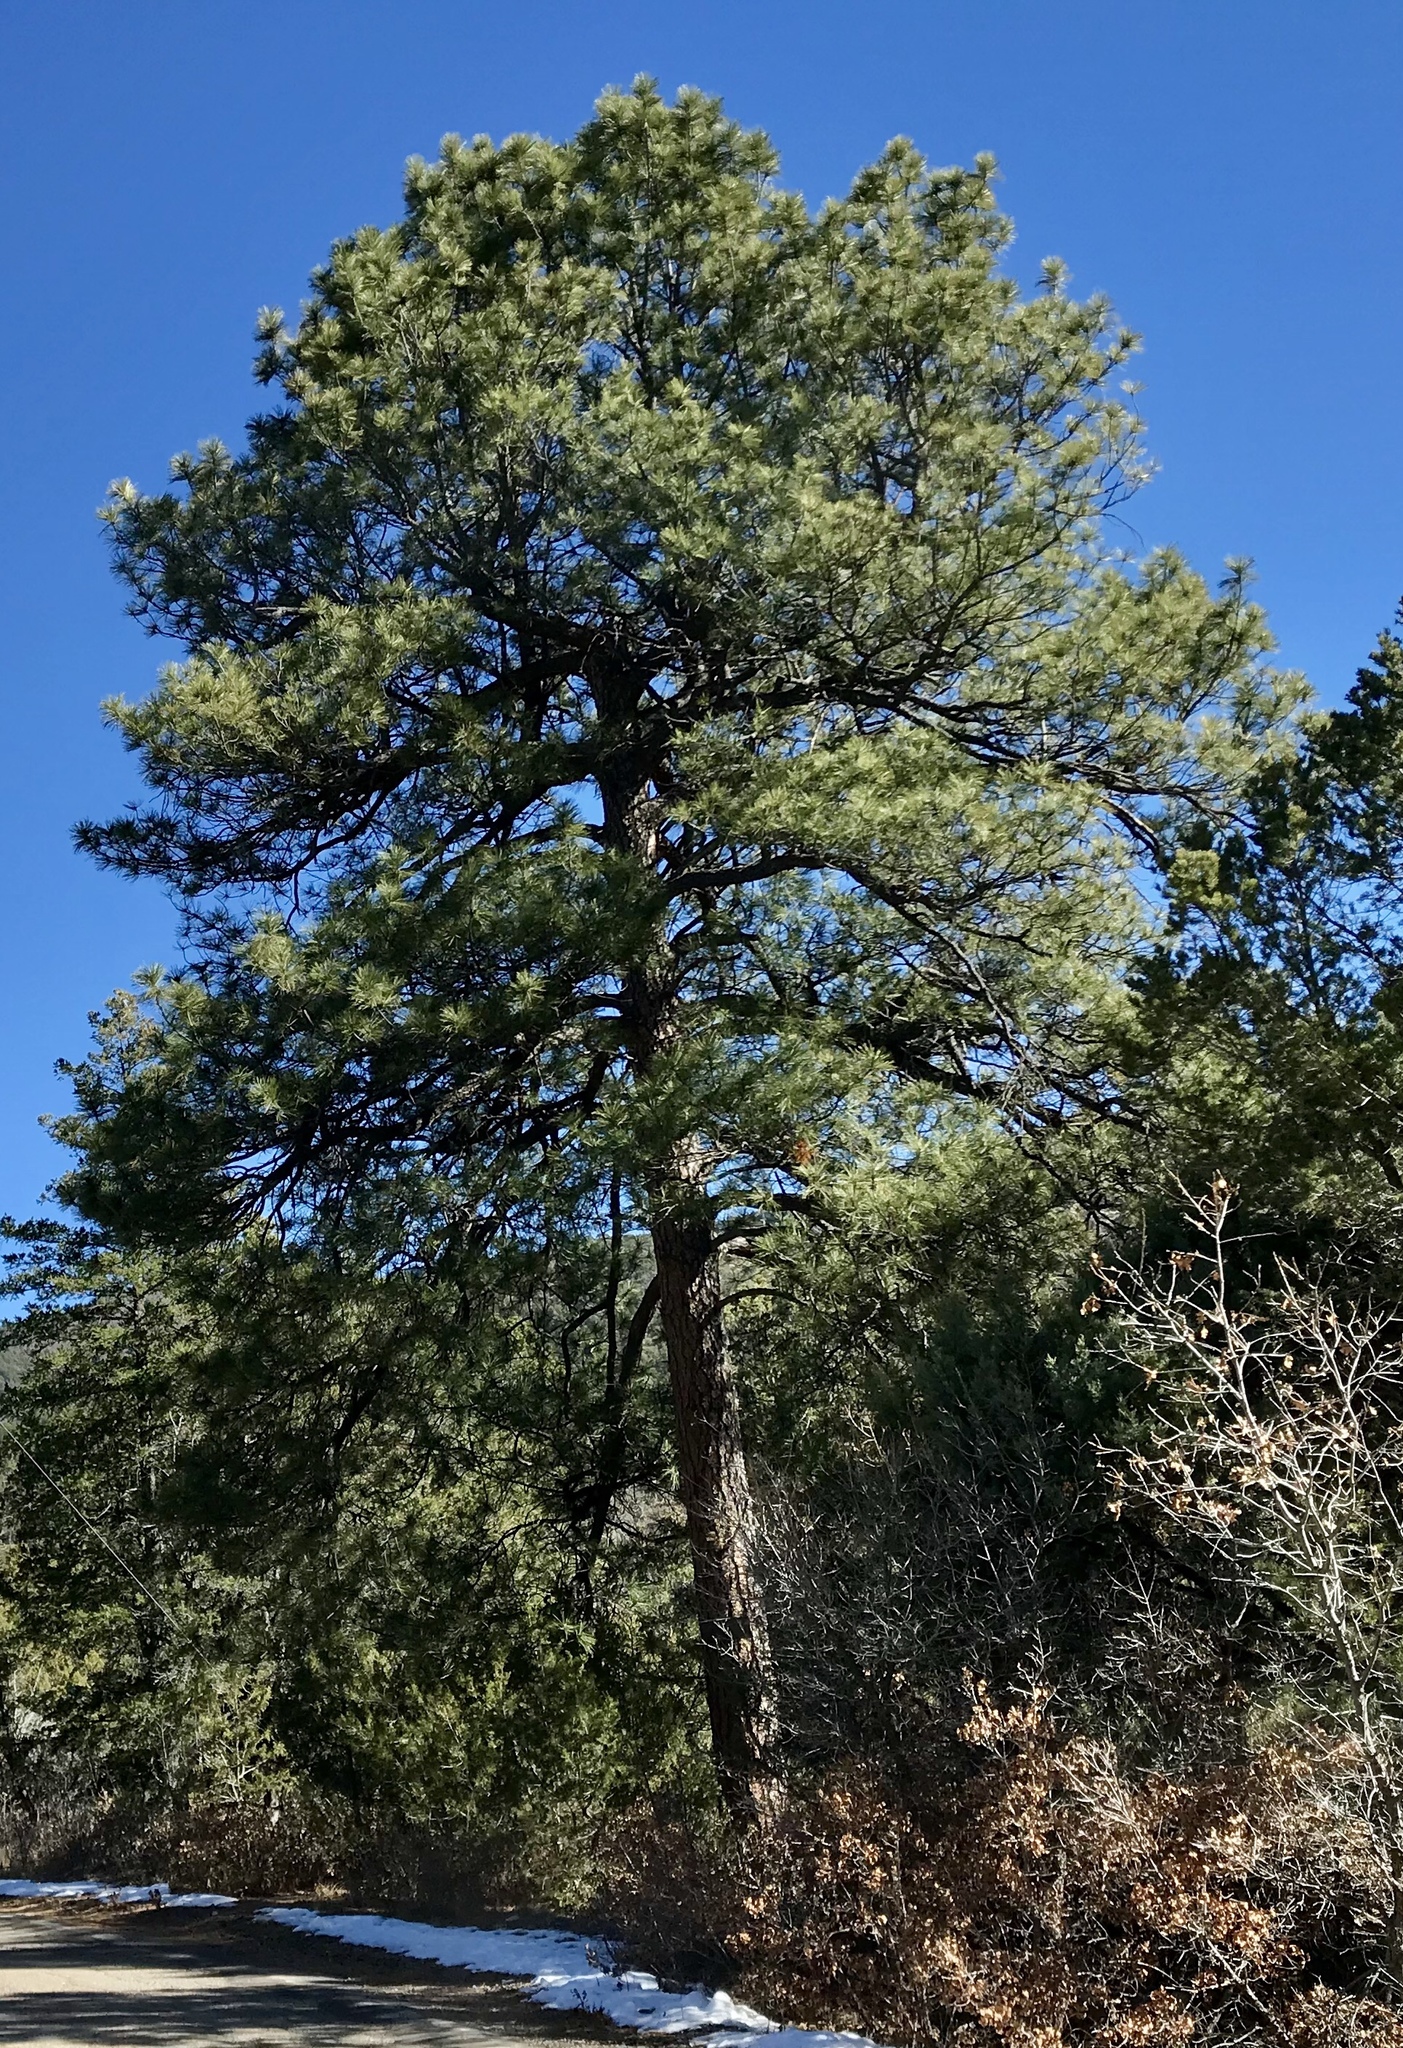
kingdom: Plantae
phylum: Tracheophyta
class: Pinopsida
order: Pinales
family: Pinaceae
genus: Pinus
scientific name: Pinus ponderosa
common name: Western yellow-pine
